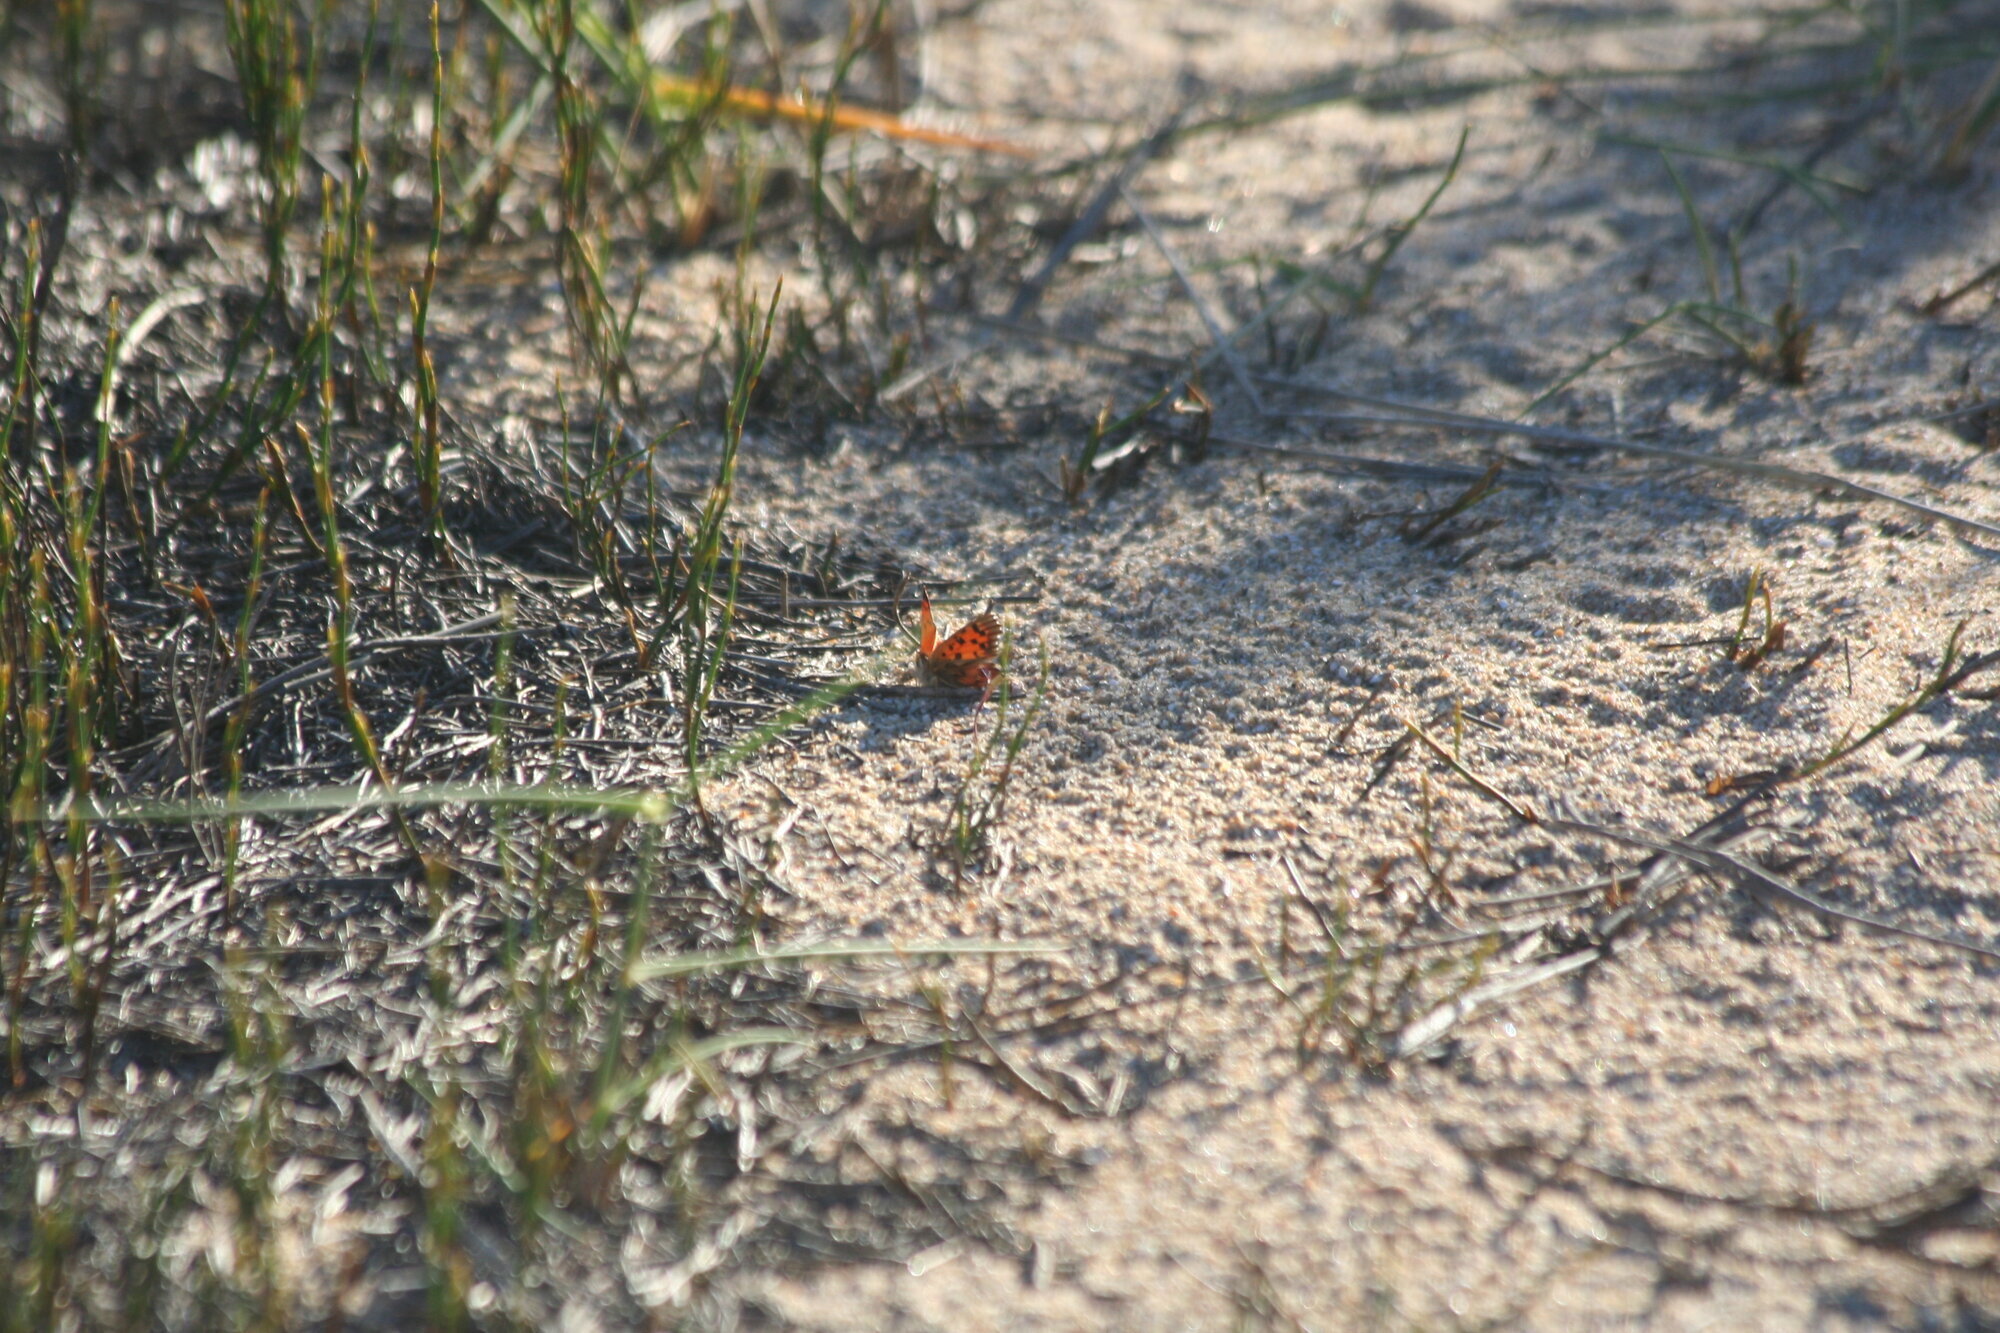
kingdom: Animalia
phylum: Arthropoda
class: Insecta
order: Lepidoptera
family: Lycaenidae
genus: Chrysoritis
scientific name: Chrysoritis
